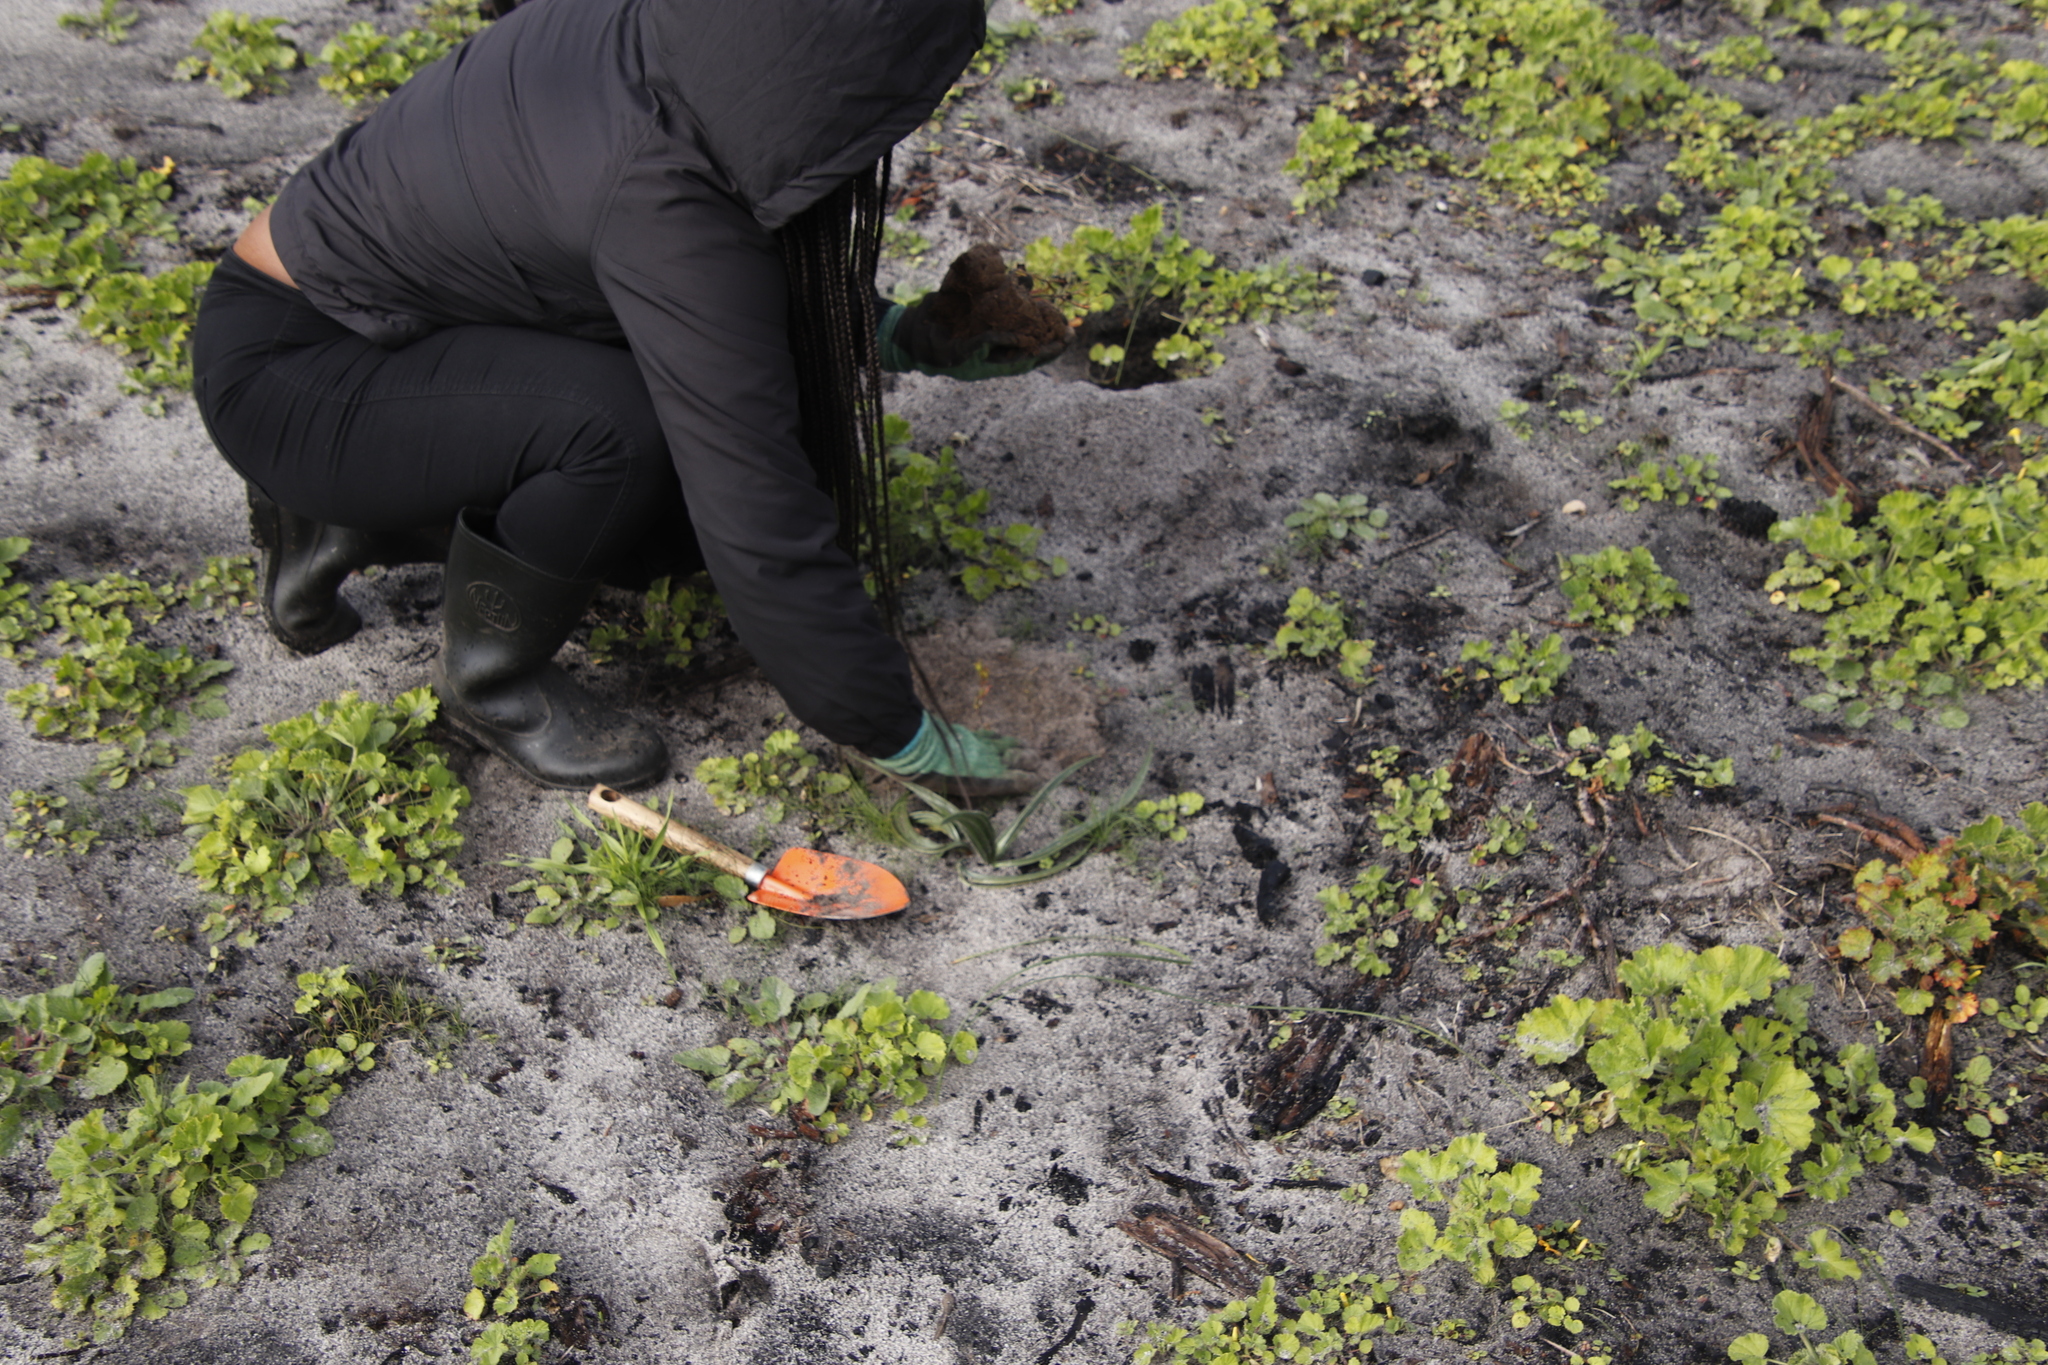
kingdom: Plantae
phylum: Tracheophyta
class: Magnoliopsida
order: Geraniales
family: Geraniaceae
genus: Pelargonium
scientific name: Pelargonium cucullatum
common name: Tree pelargonium
